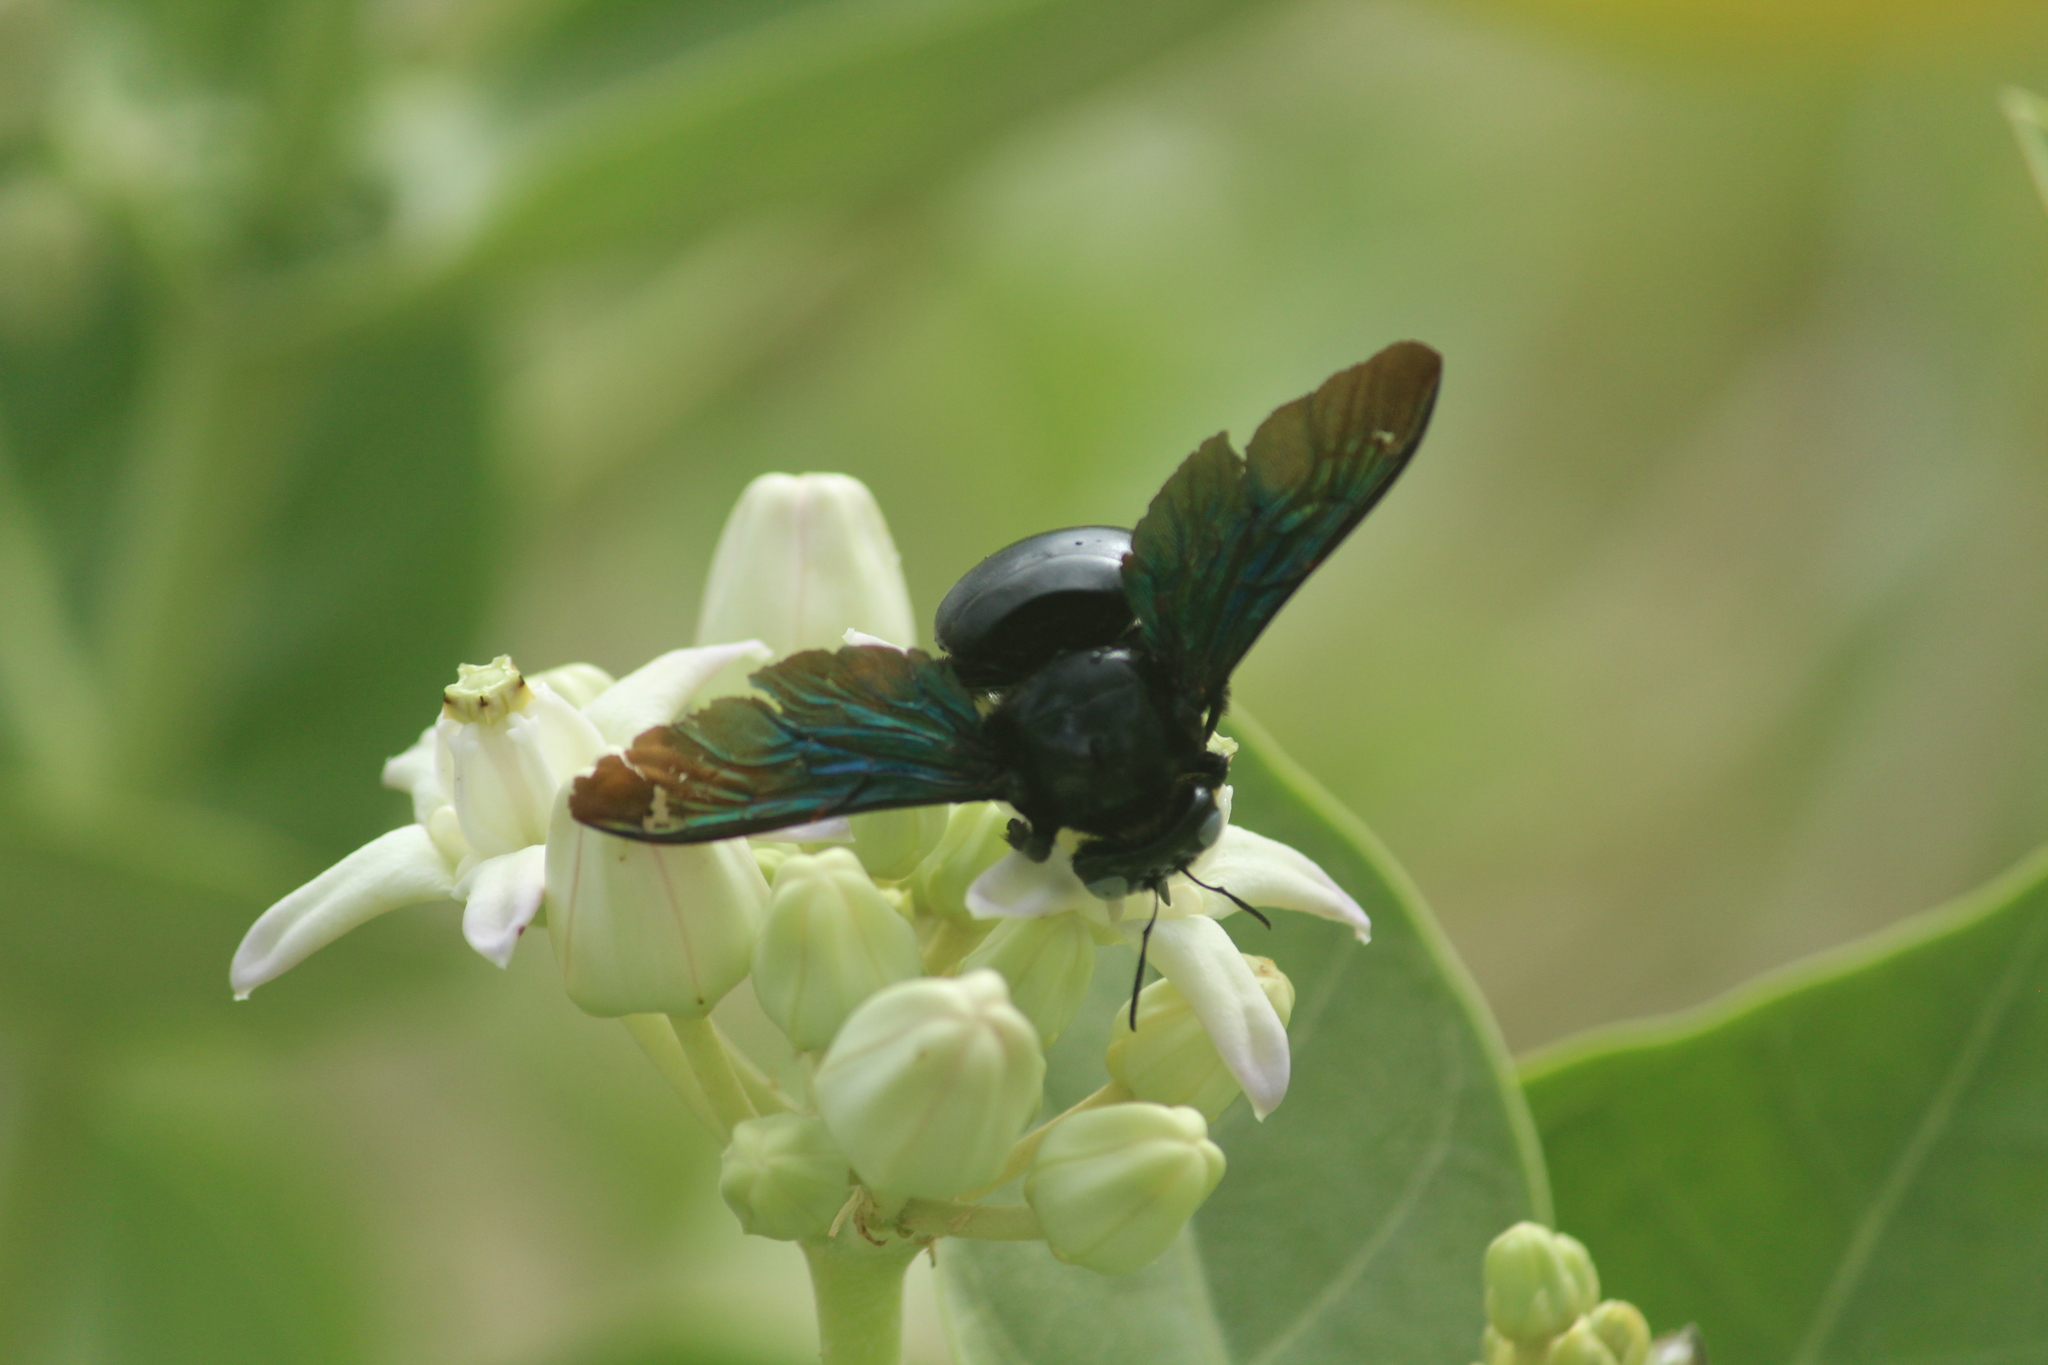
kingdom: Animalia
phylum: Arthropoda
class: Insecta
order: Hymenoptera
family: Apidae
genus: Xylocopa
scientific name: Xylocopa tenuiscapa
